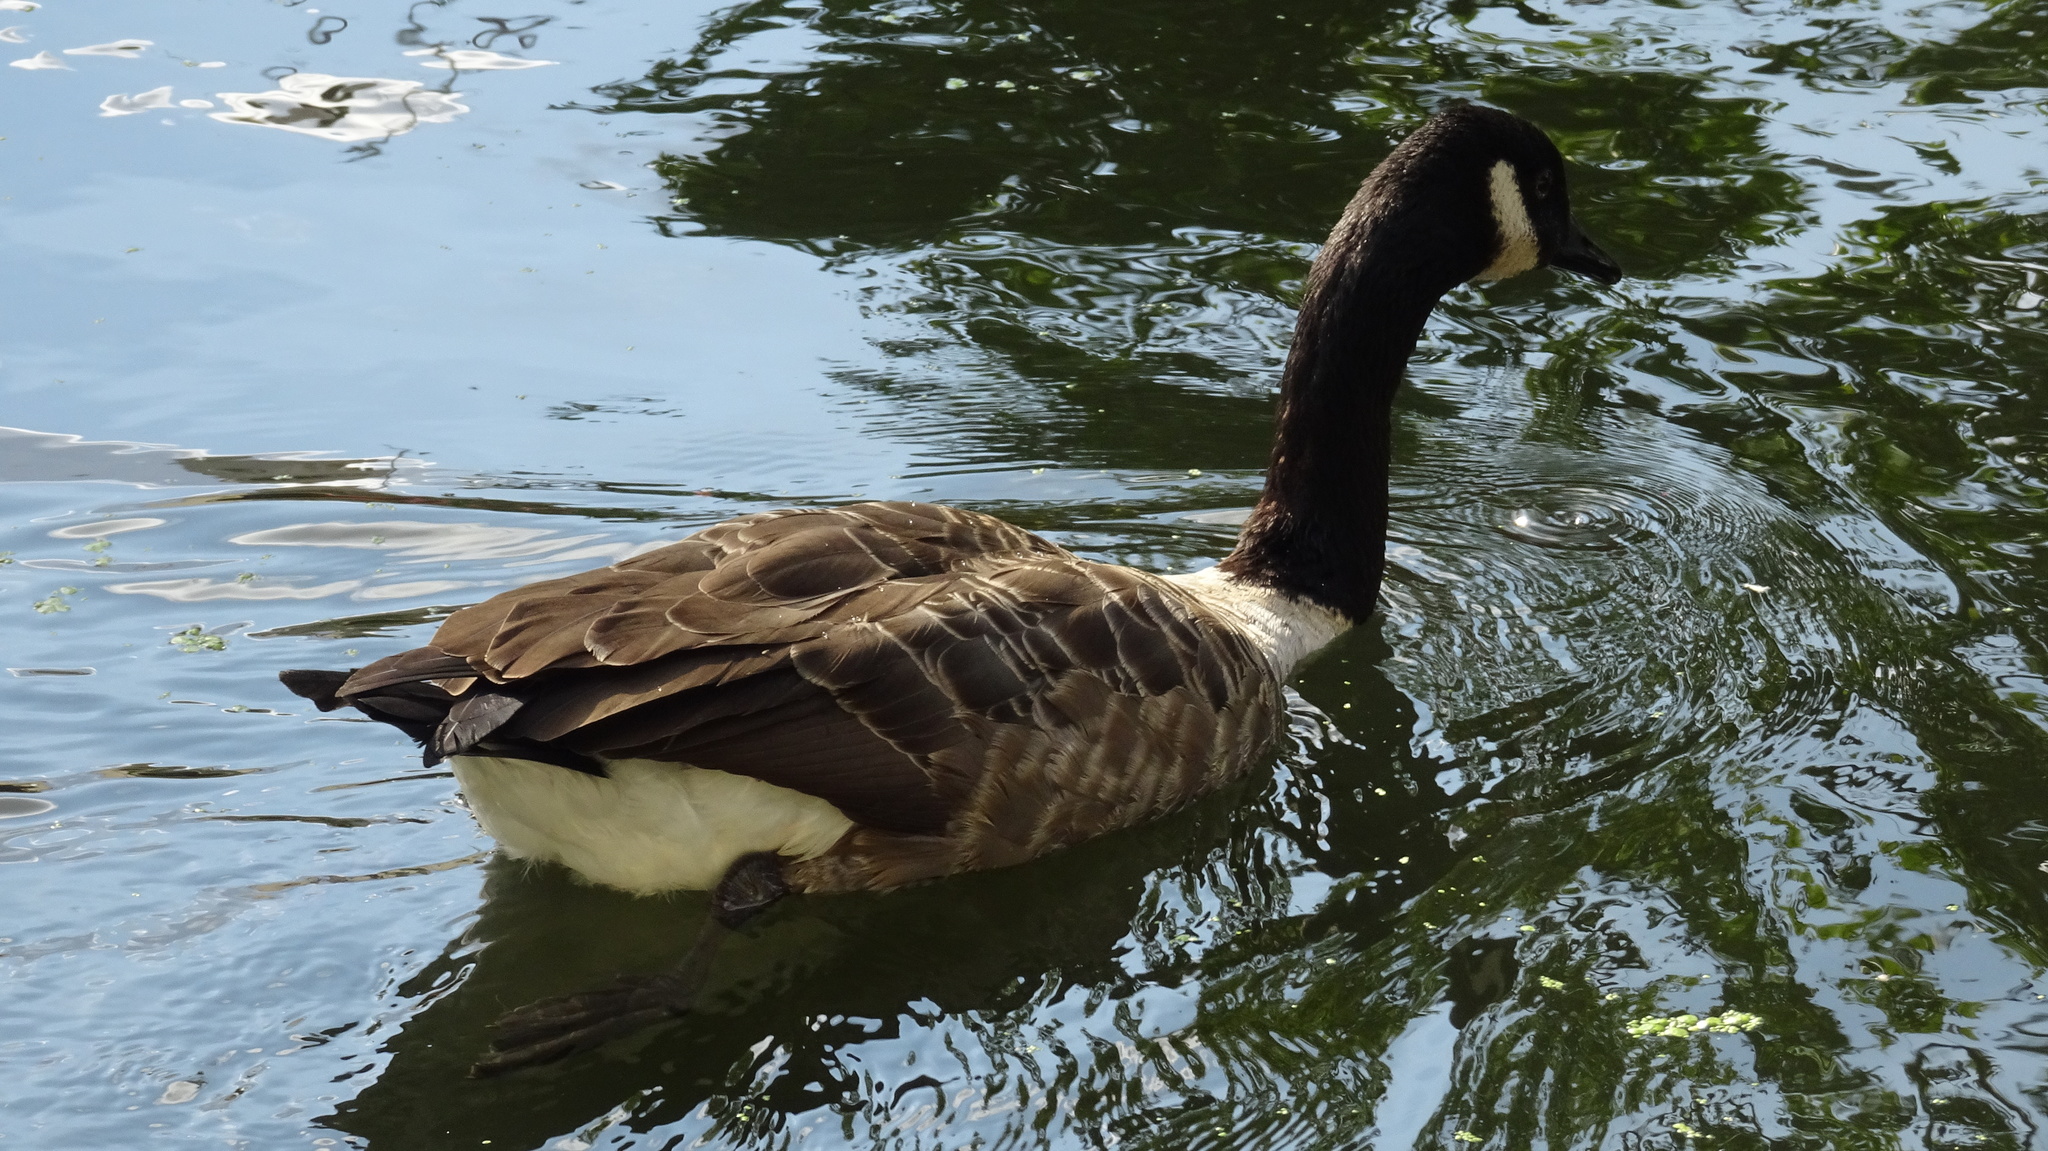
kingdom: Animalia
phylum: Chordata
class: Aves
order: Anseriformes
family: Anatidae
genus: Branta
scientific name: Branta canadensis
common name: Canada goose
